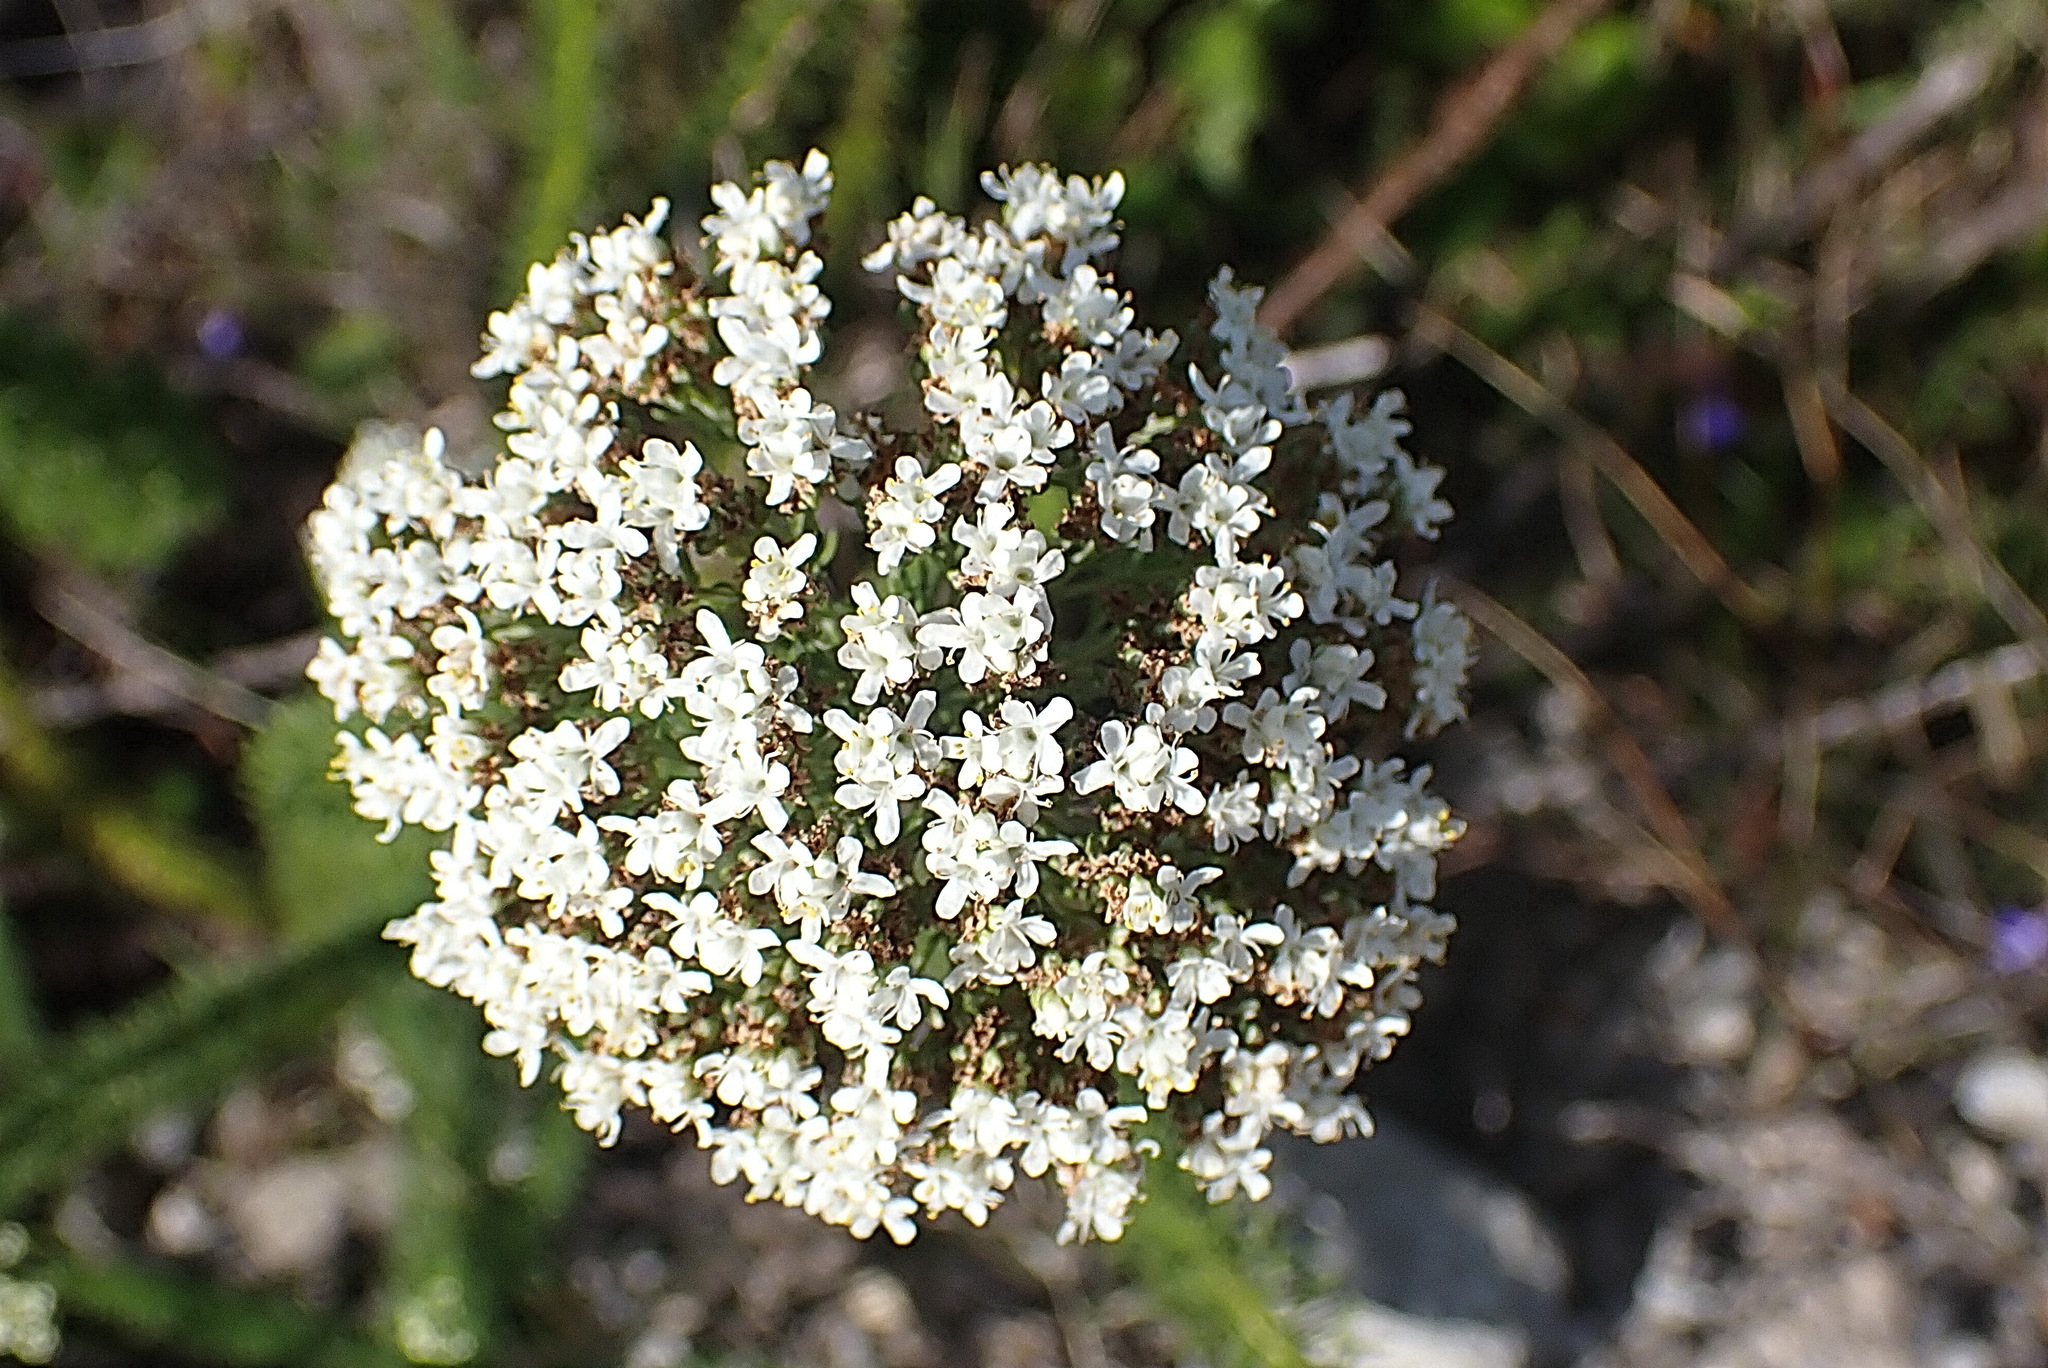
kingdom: Plantae
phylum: Tracheophyta
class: Magnoliopsida
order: Lamiales
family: Scrophulariaceae
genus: Selago
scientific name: Selago corymbosa
